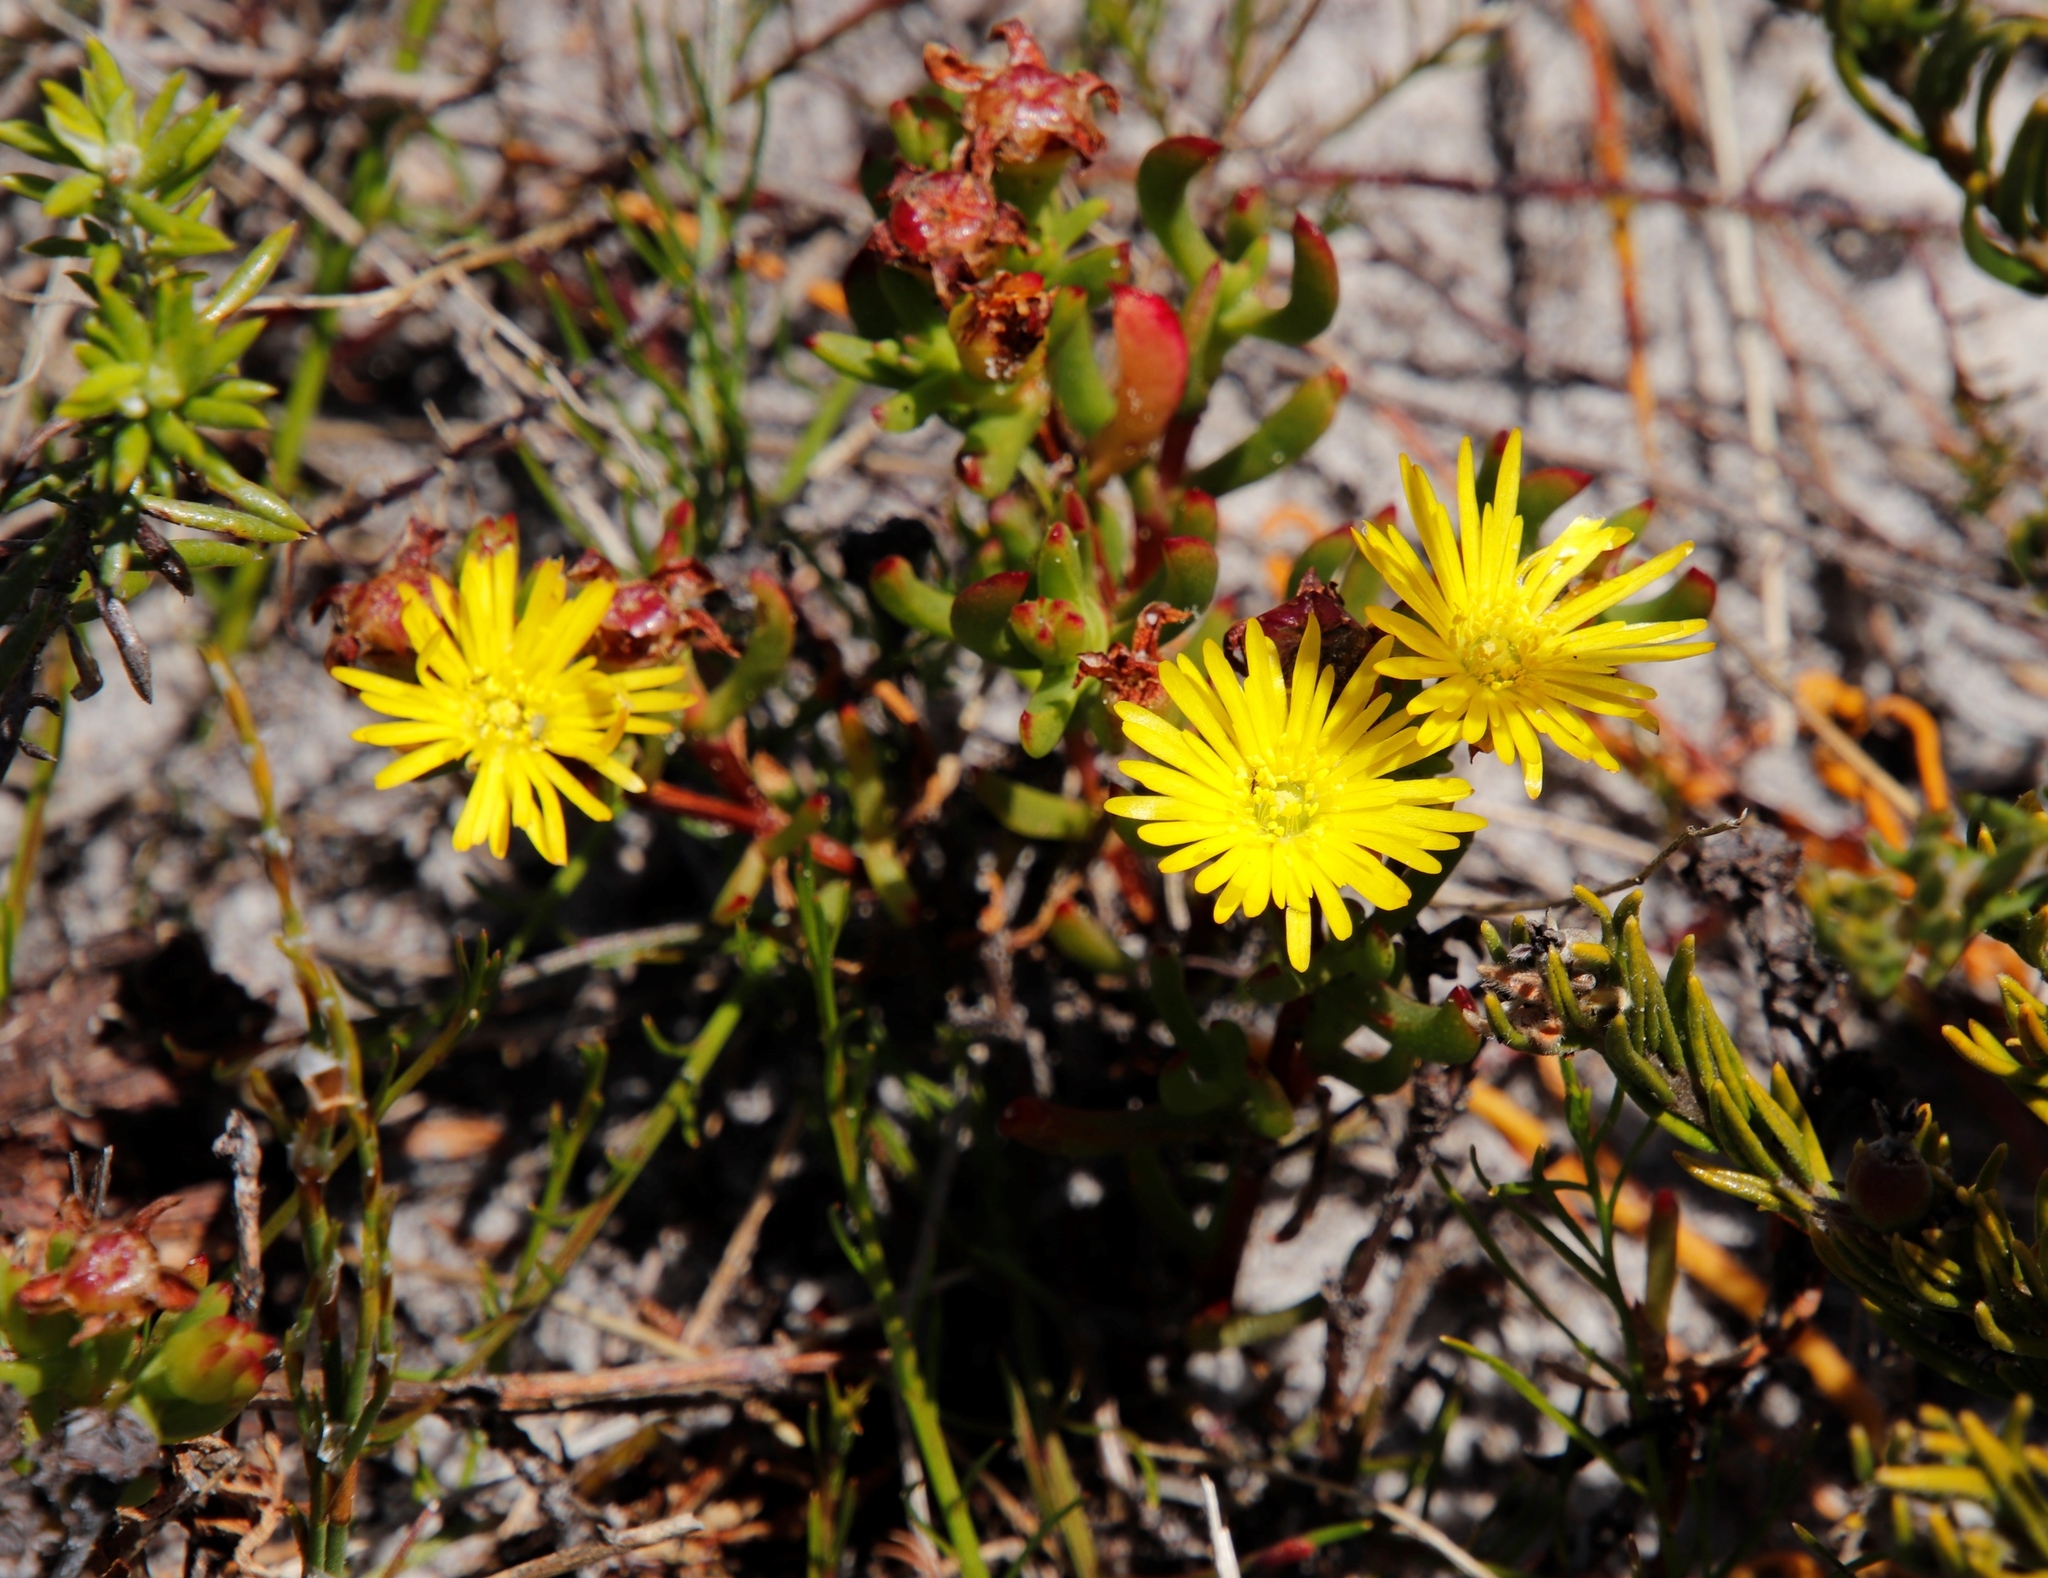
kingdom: Plantae
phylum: Tracheophyta
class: Magnoliopsida
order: Caryophyllales
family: Aizoaceae
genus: Lampranthus
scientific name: Lampranthus promontorii
